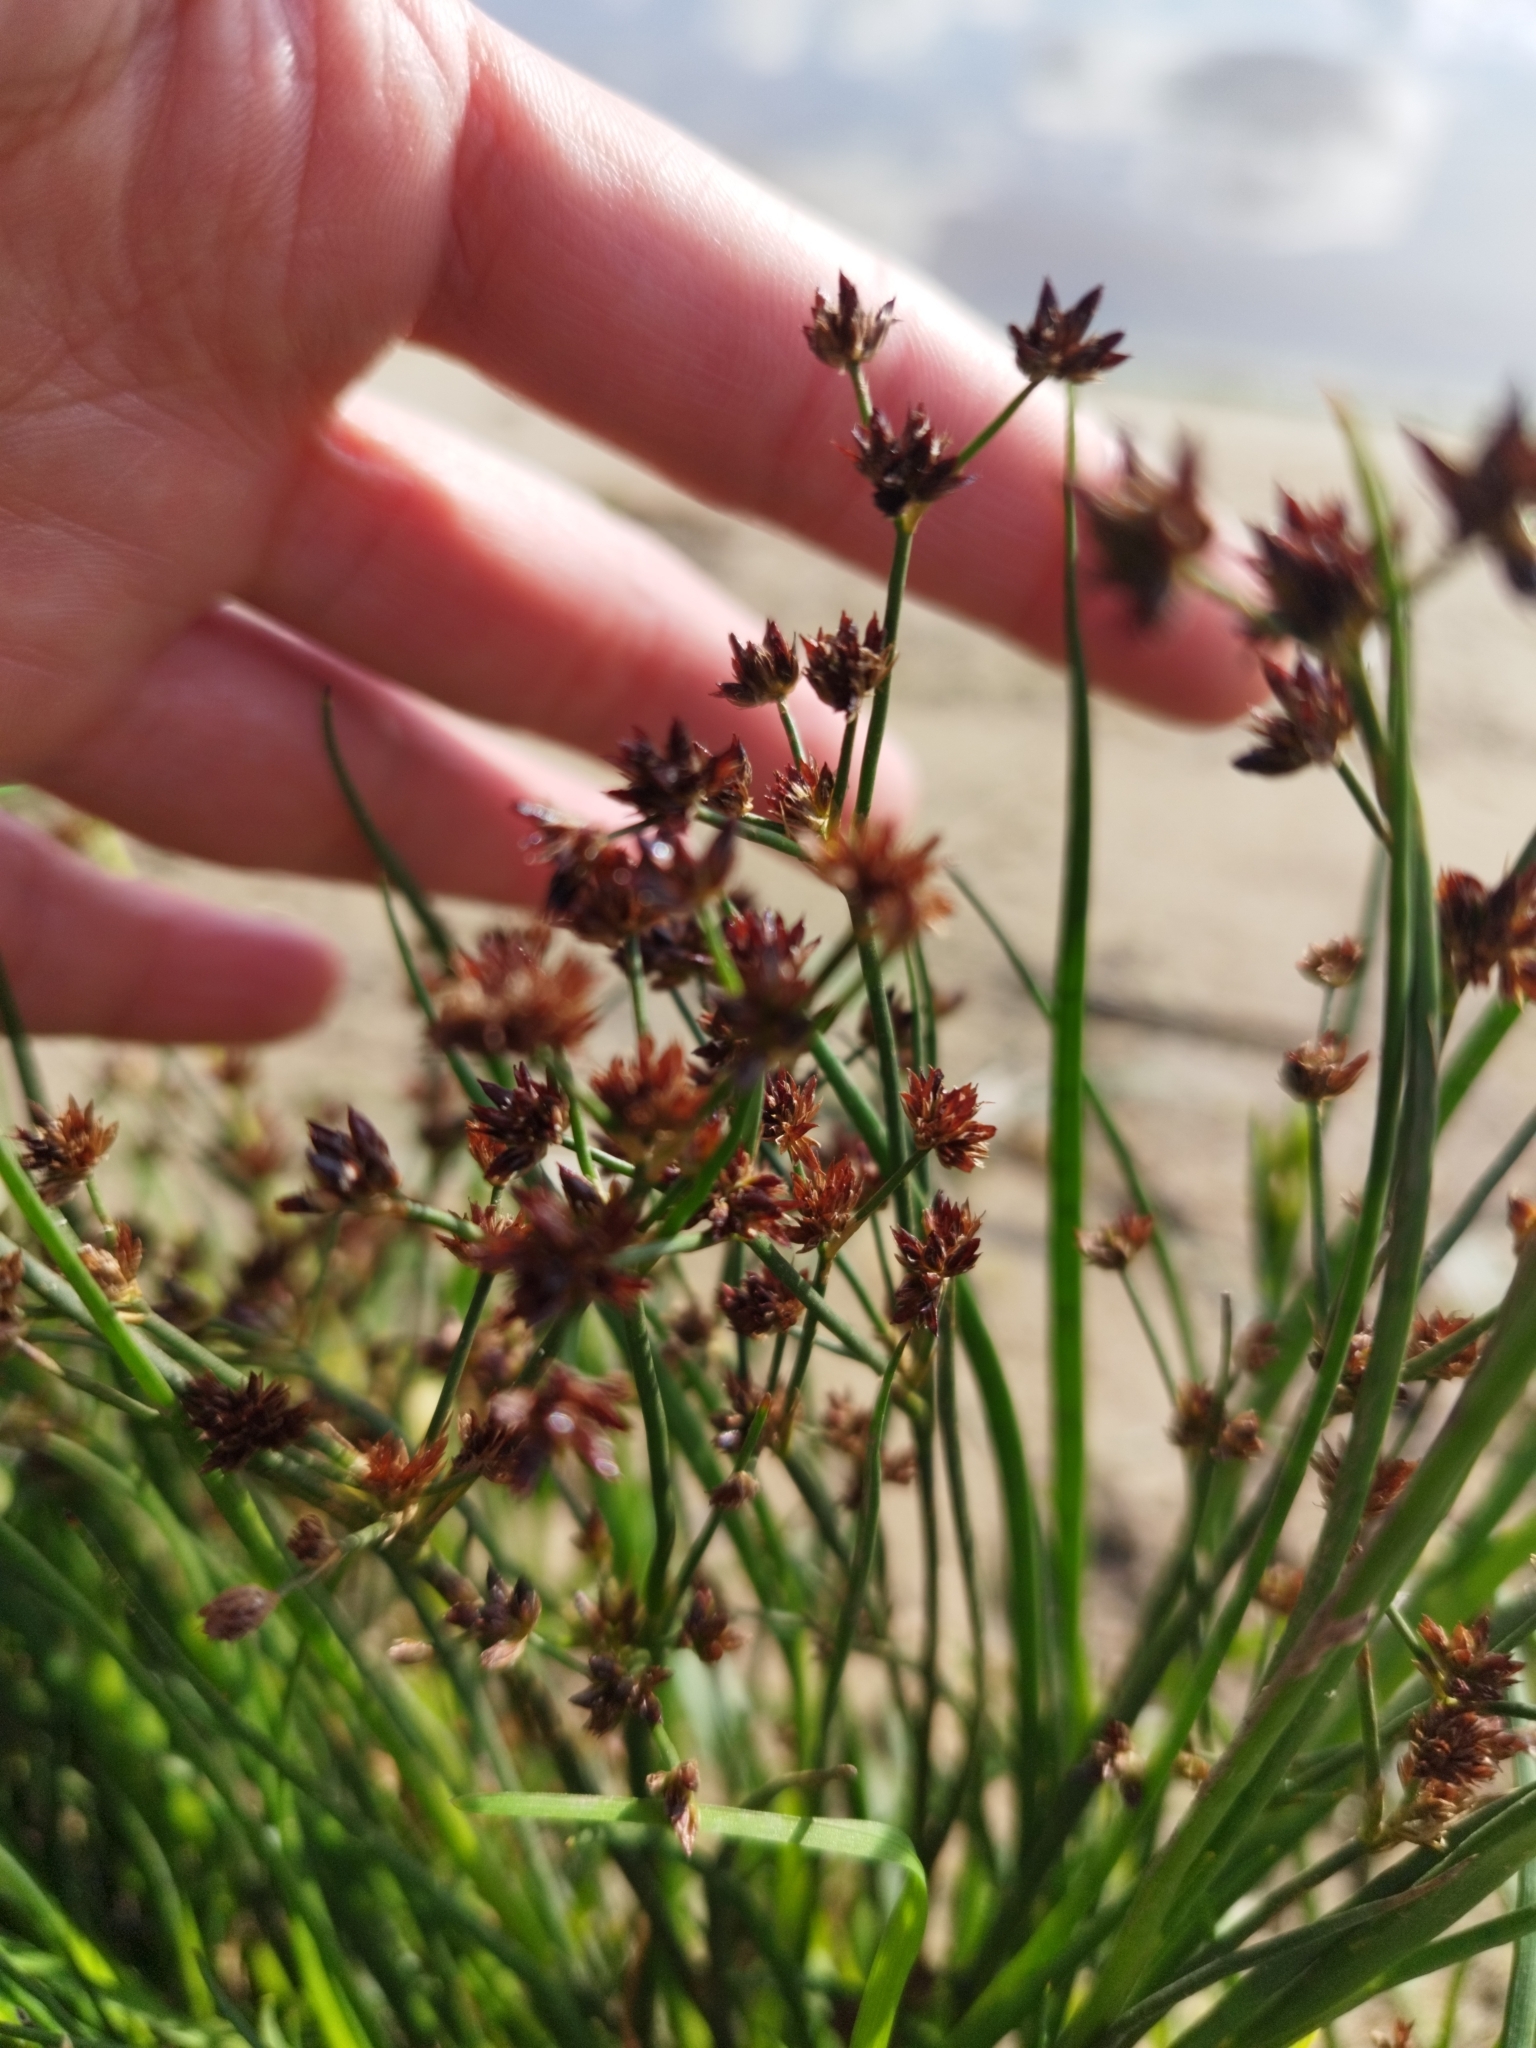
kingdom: Plantae
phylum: Tracheophyta
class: Liliopsida
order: Poales
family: Juncaceae
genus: Juncus
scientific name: Juncus articulatus
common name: Jointed rush
